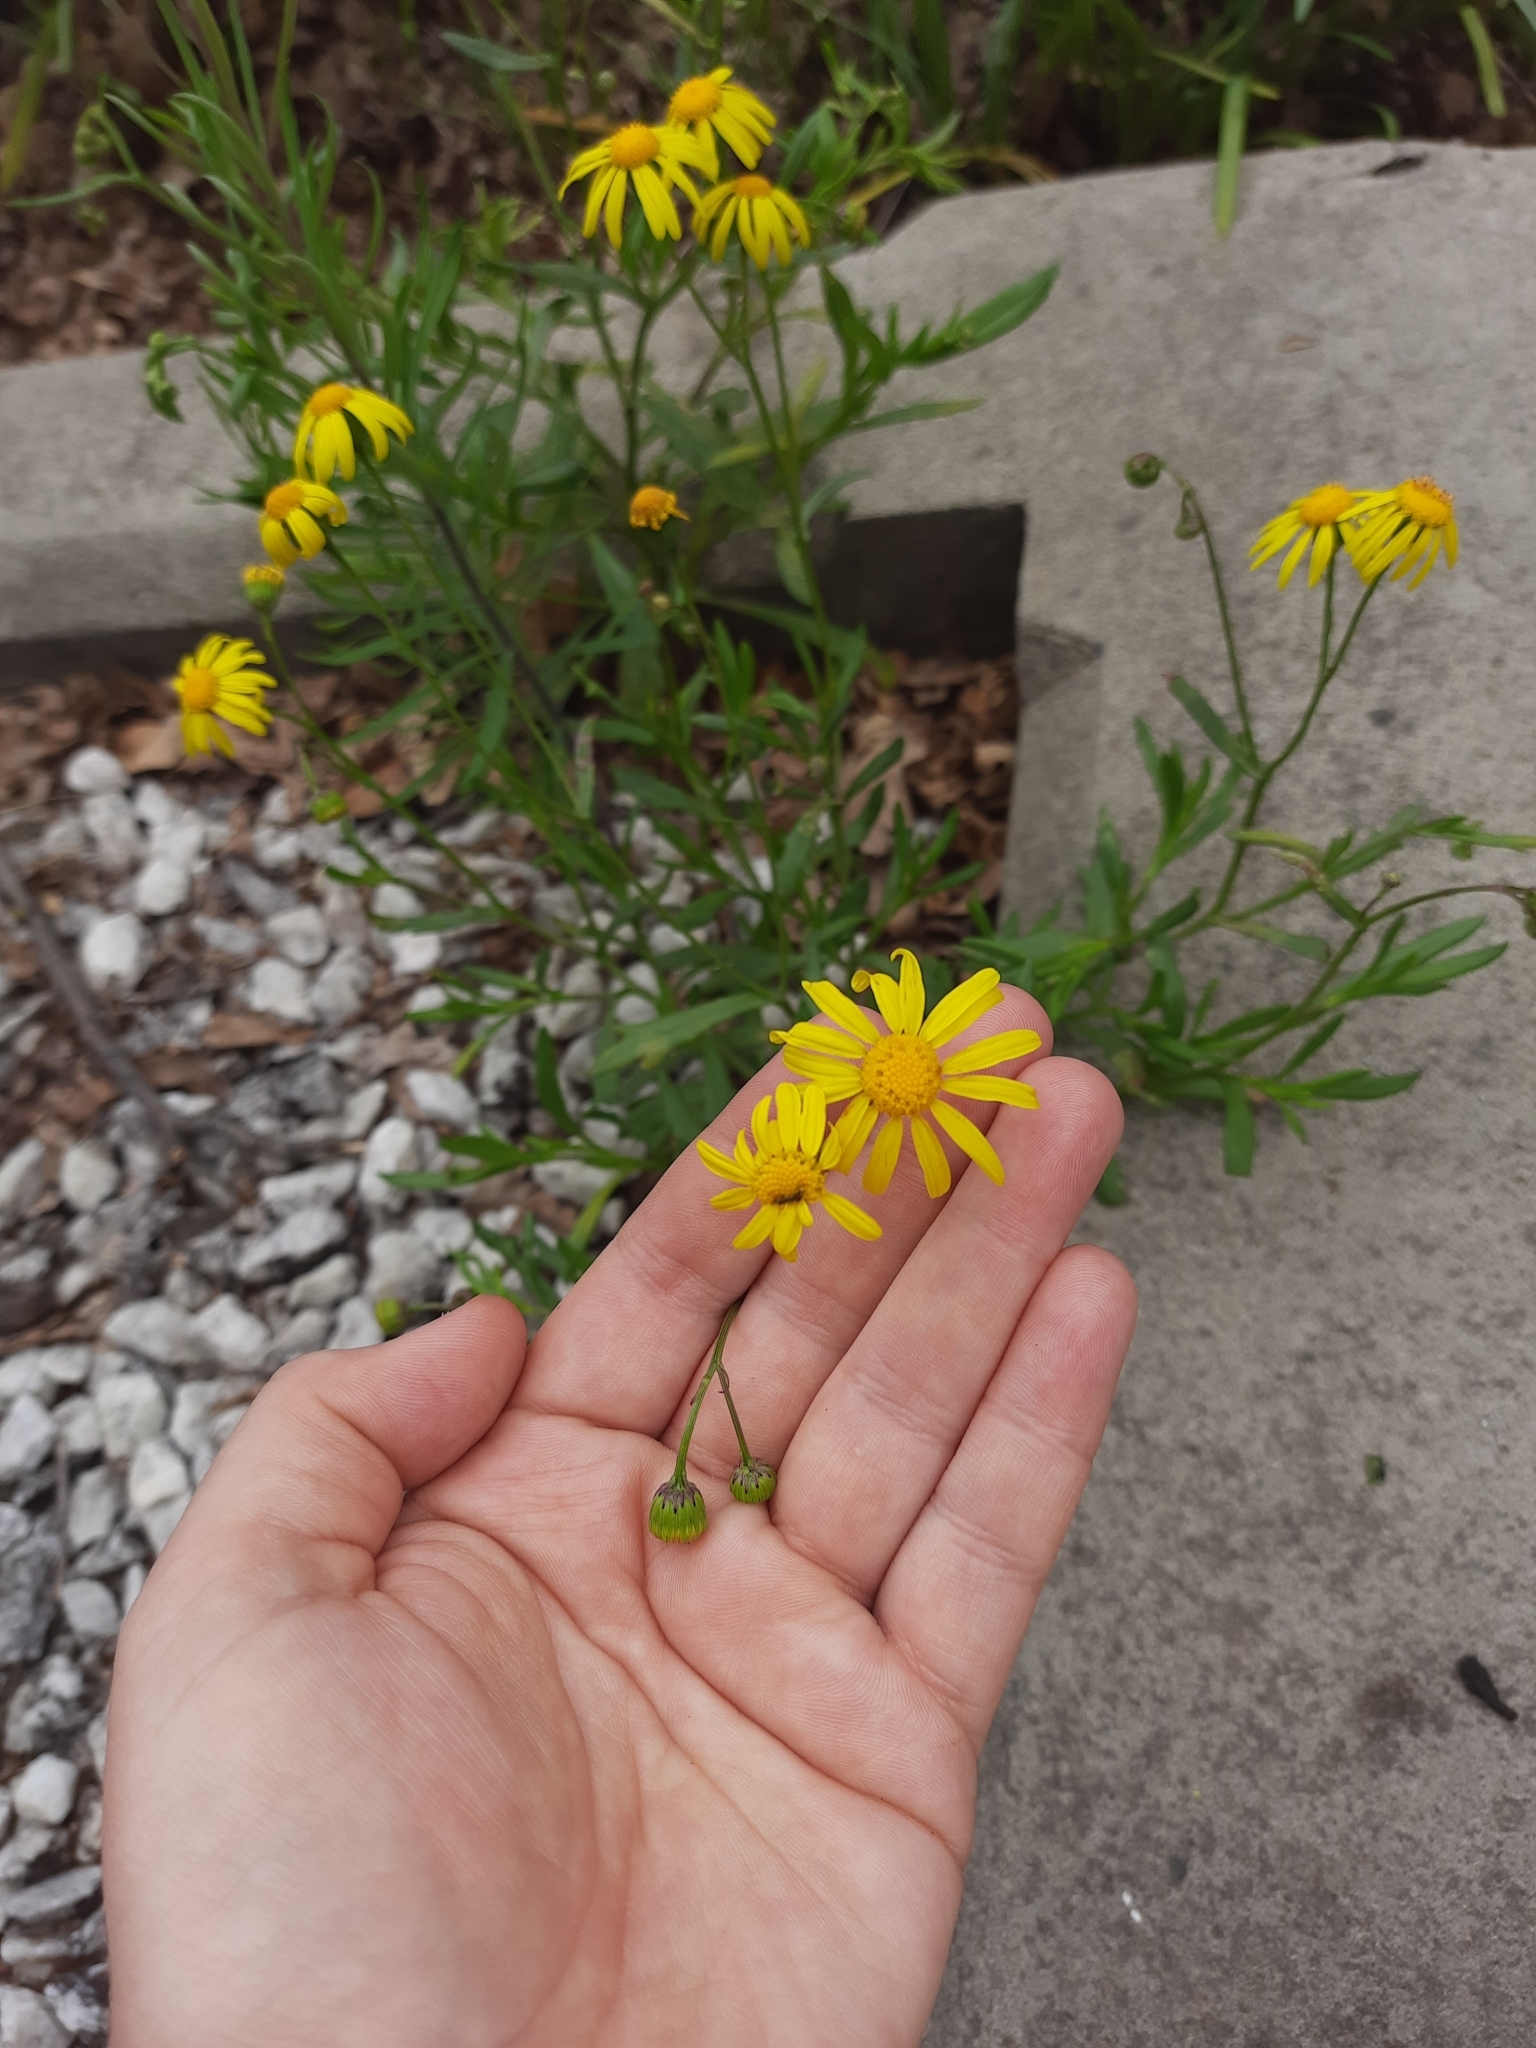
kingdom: Plantae
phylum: Tracheophyta
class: Magnoliopsida
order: Asterales
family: Asteraceae
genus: Senecio
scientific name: Senecio skirrhodon
